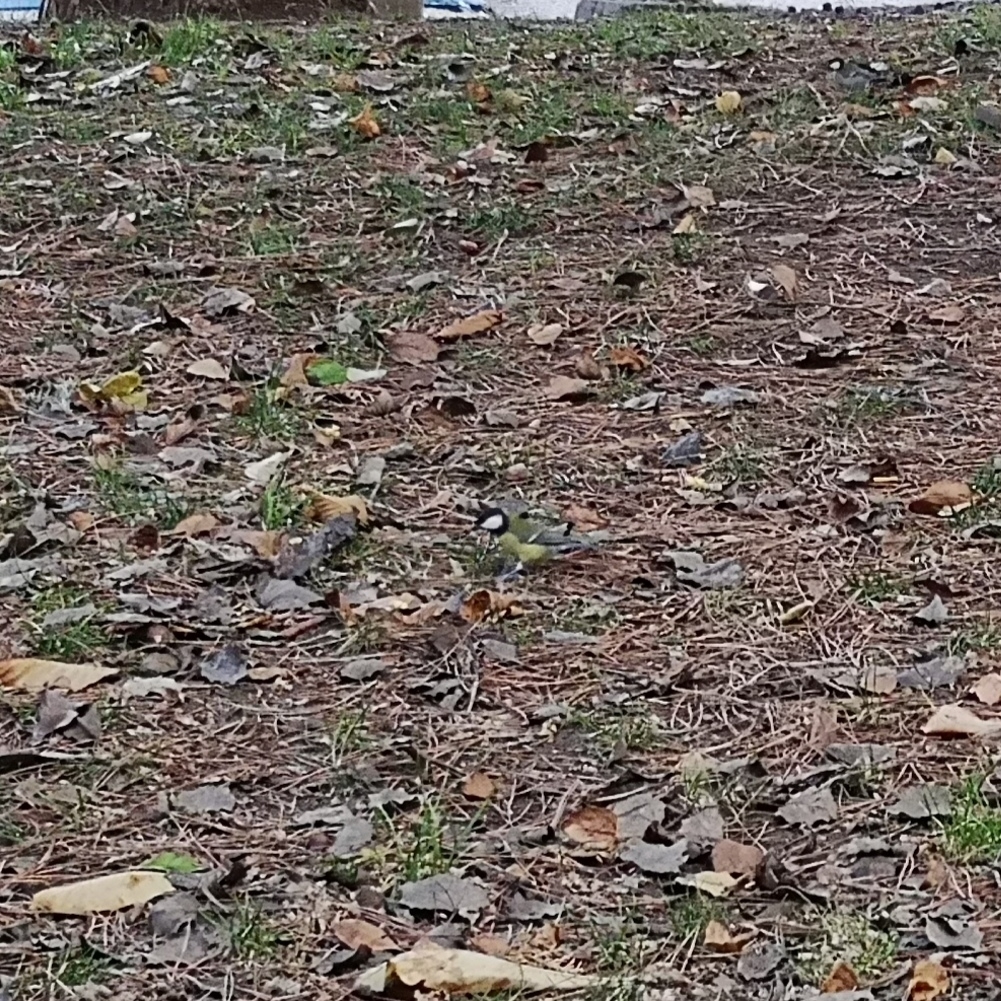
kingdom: Animalia
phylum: Chordata
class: Aves
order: Passeriformes
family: Paridae
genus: Parus
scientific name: Parus major
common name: Great tit
